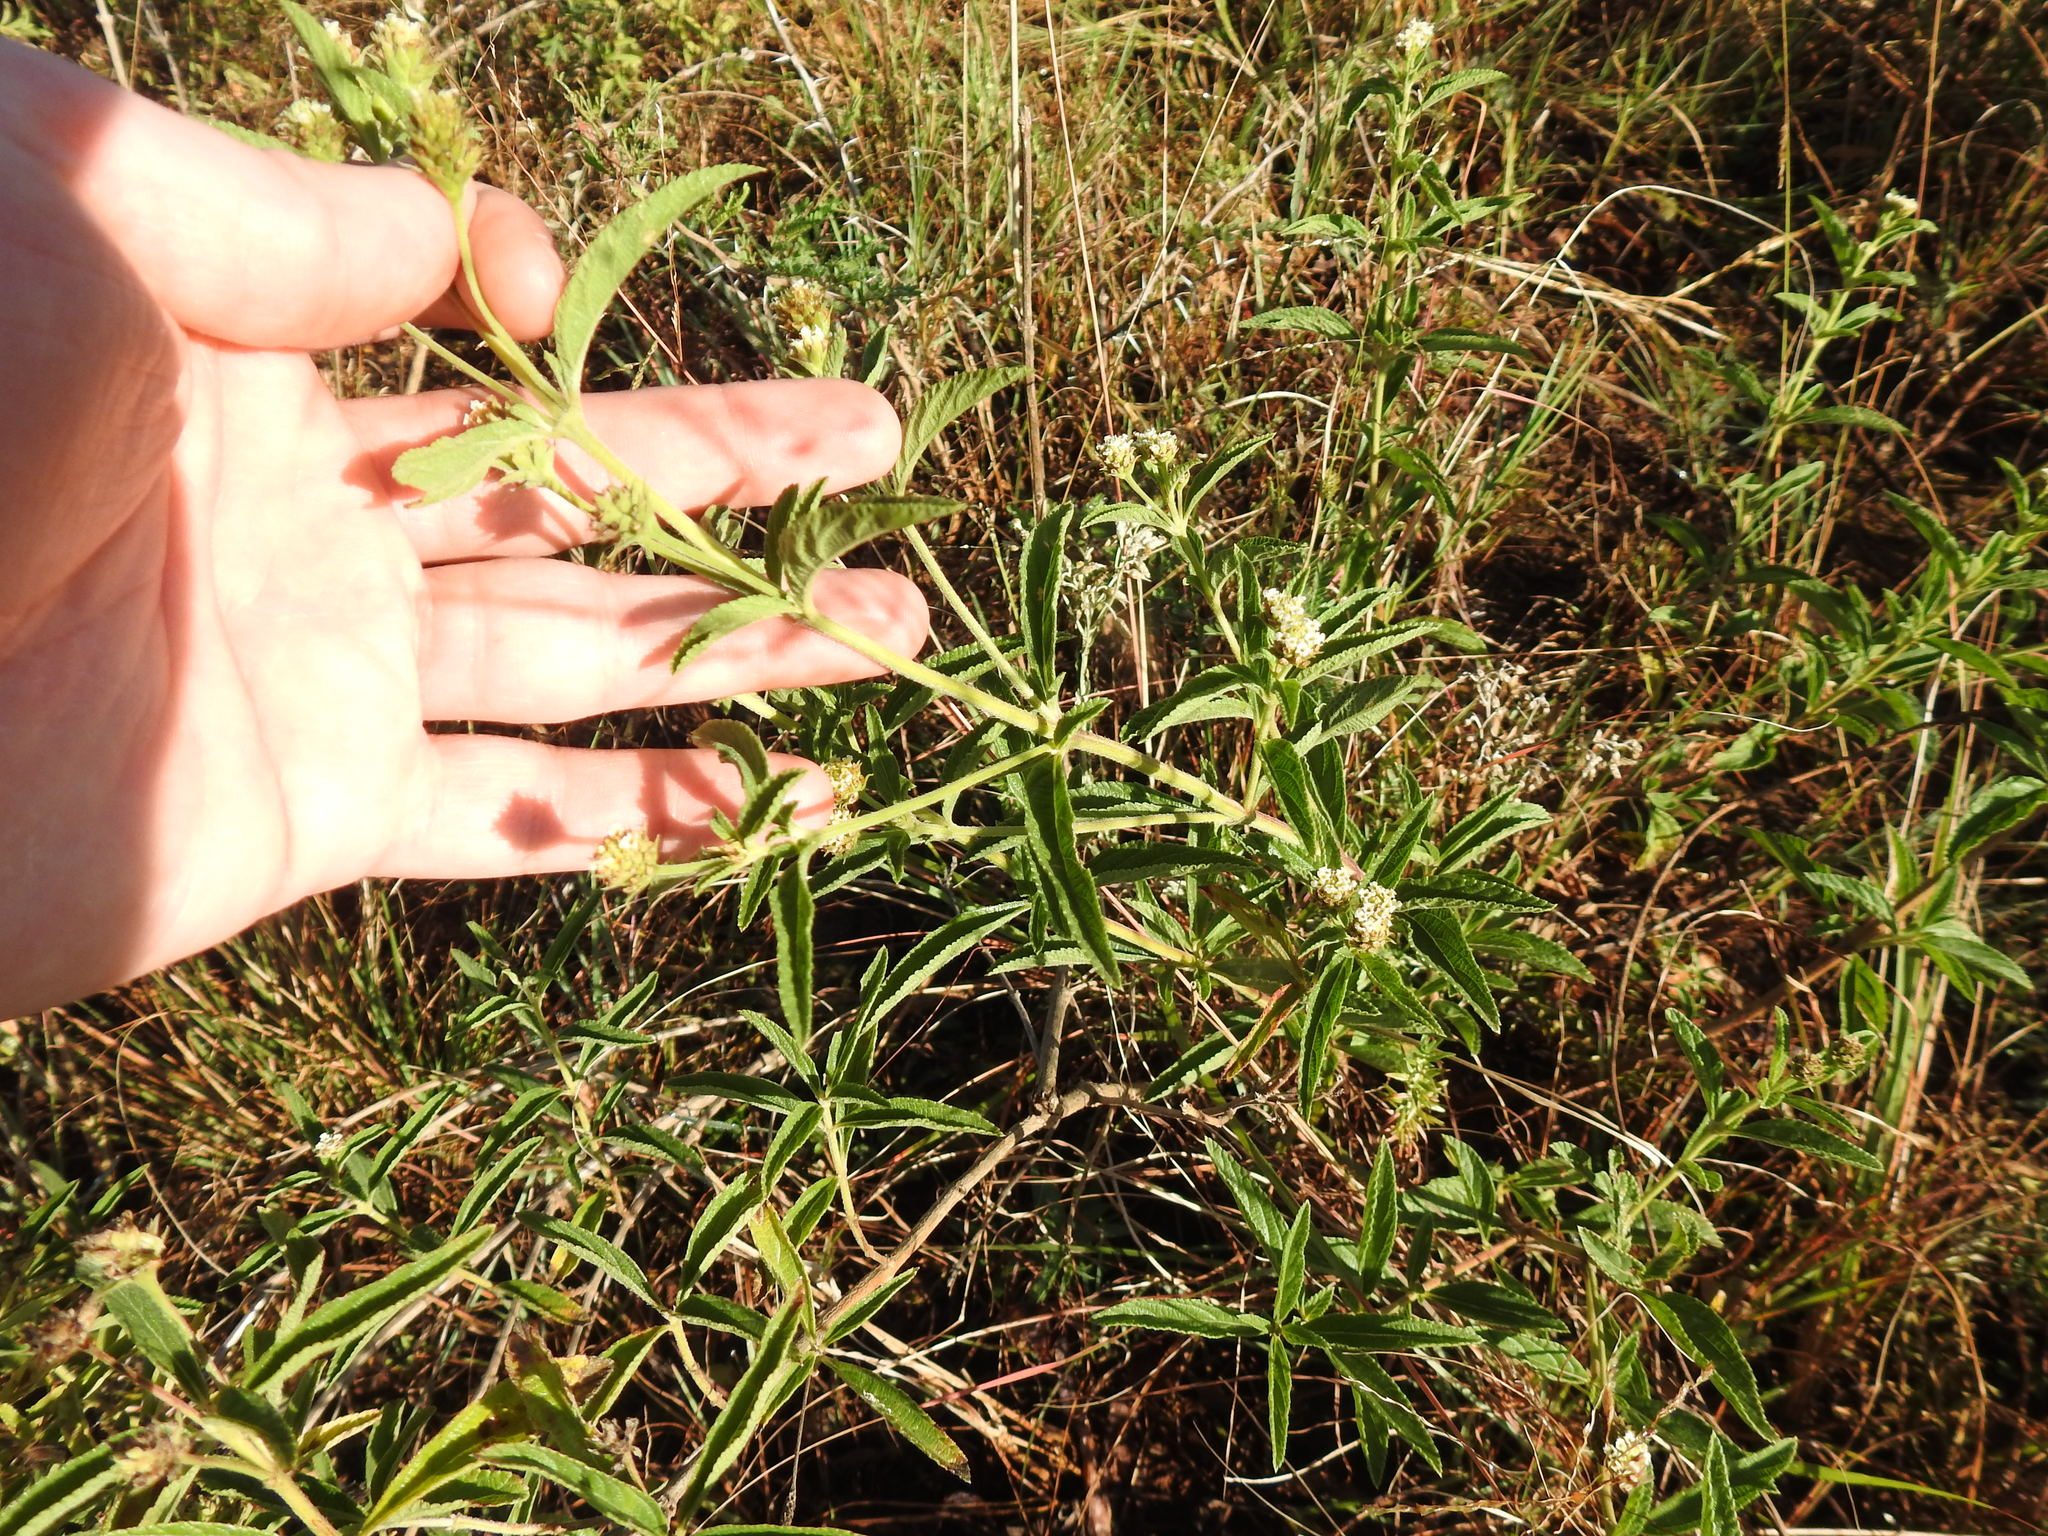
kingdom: Plantae
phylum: Tracheophyta
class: Magnoliopsida
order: Lamiales
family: Verbenaceae
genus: Lippia
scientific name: Lippia javanica
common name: Lemonbush
